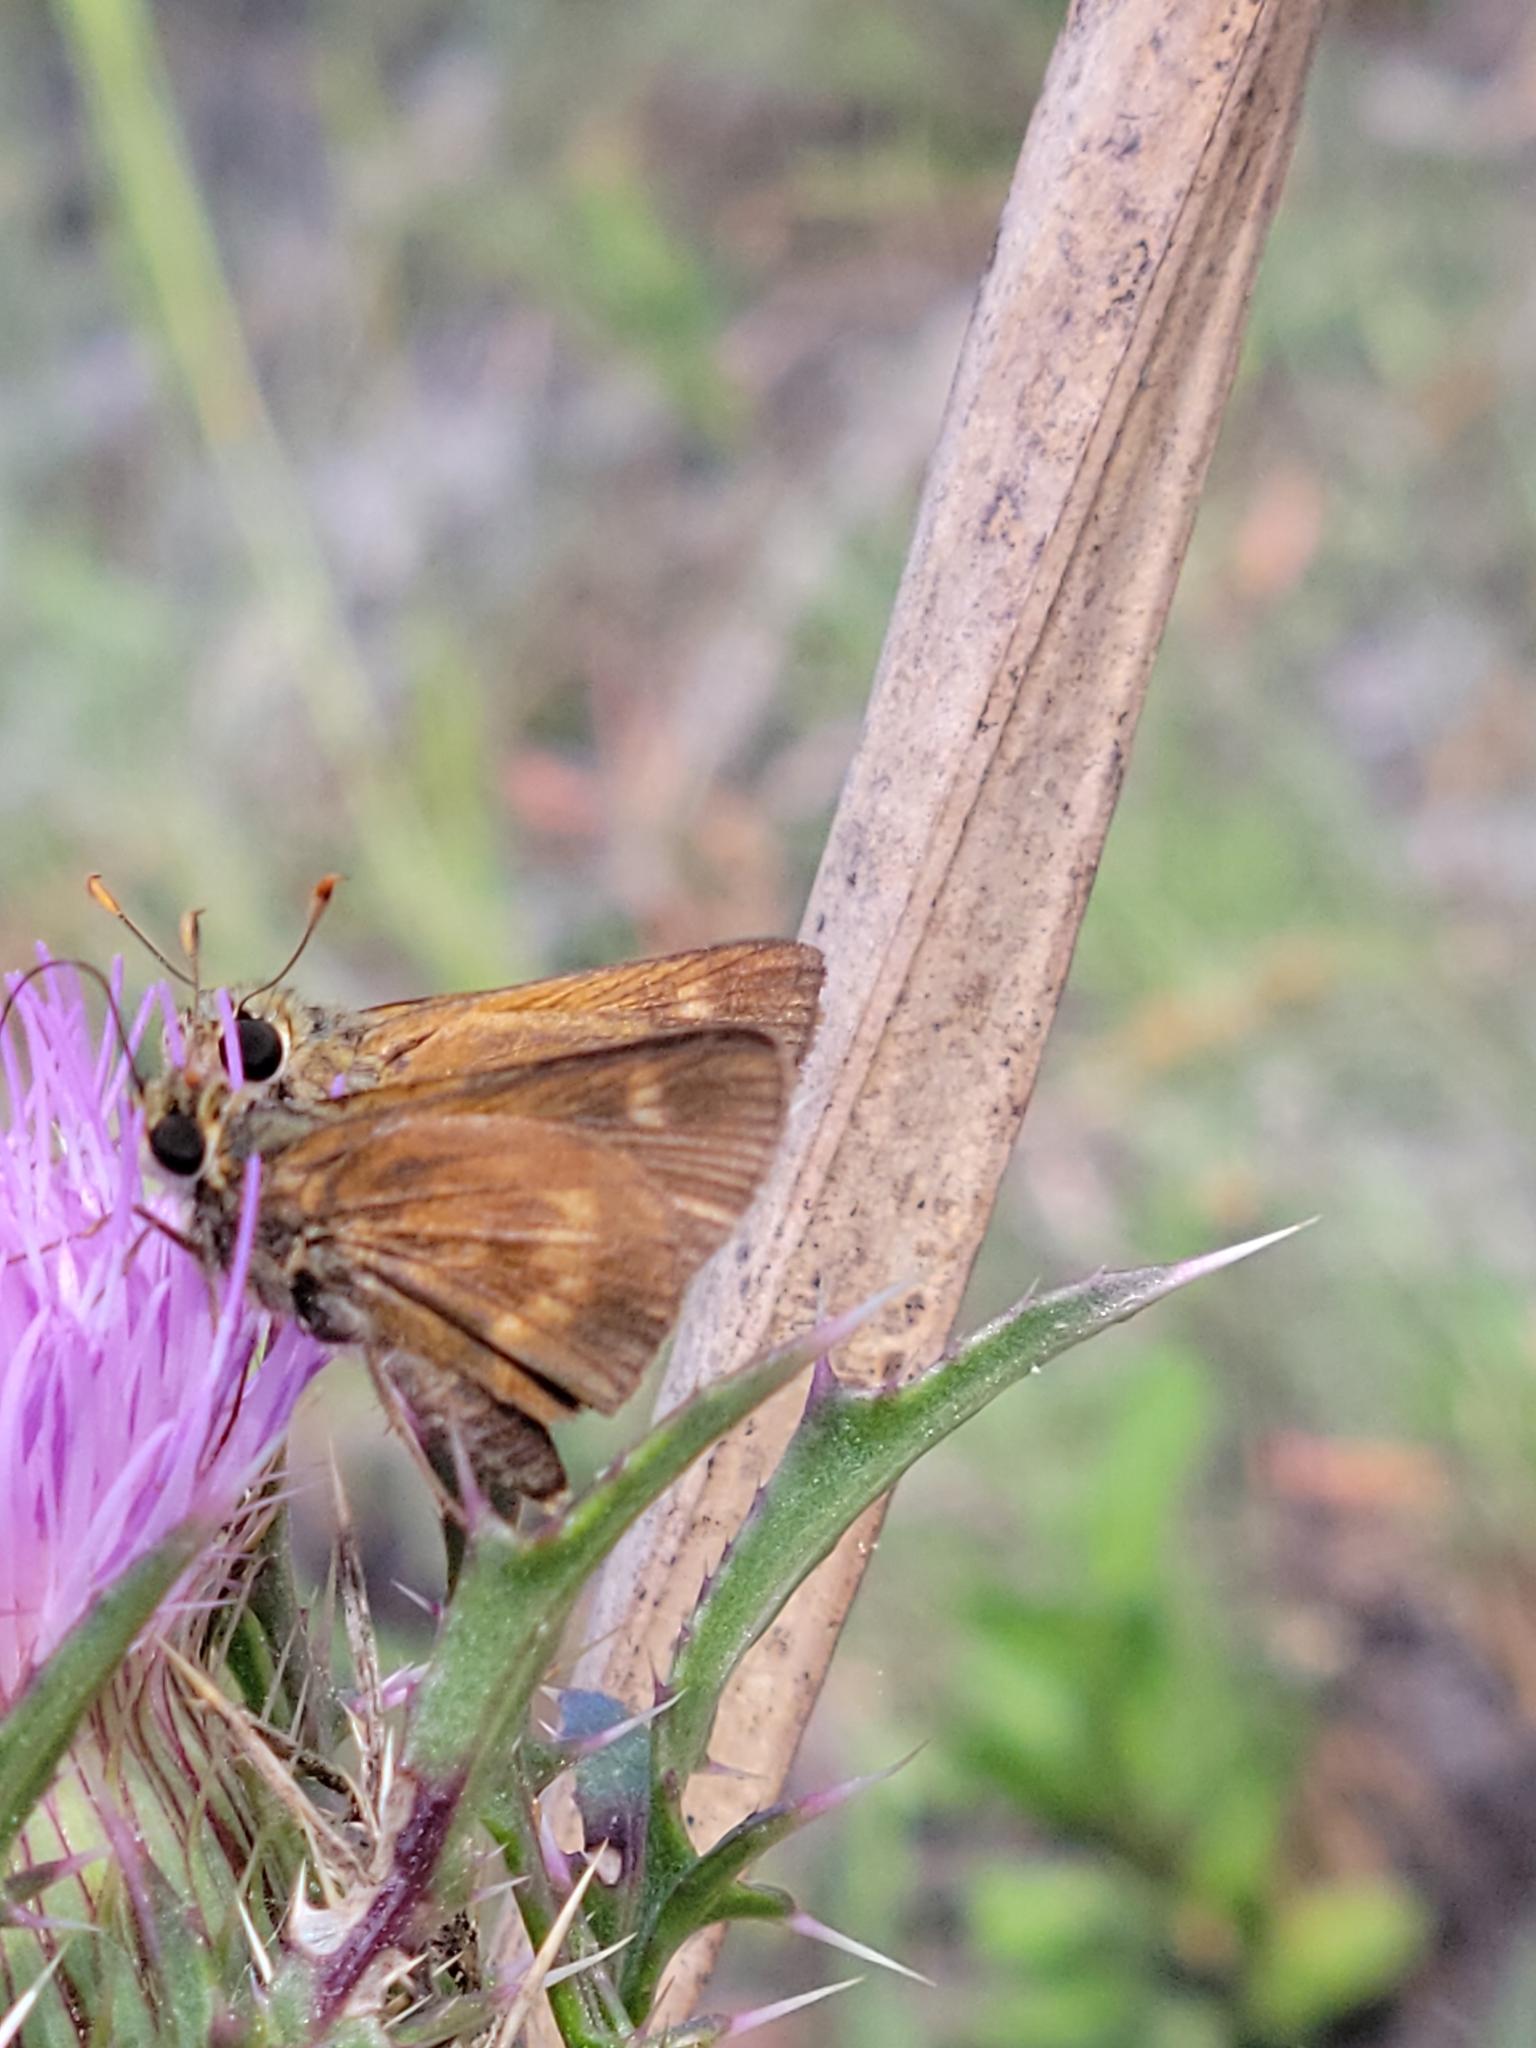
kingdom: Animalia
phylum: Arthropoda
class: Insecta
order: Lepidoptera
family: Hesperiidae
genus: Polites
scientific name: Polites otho
